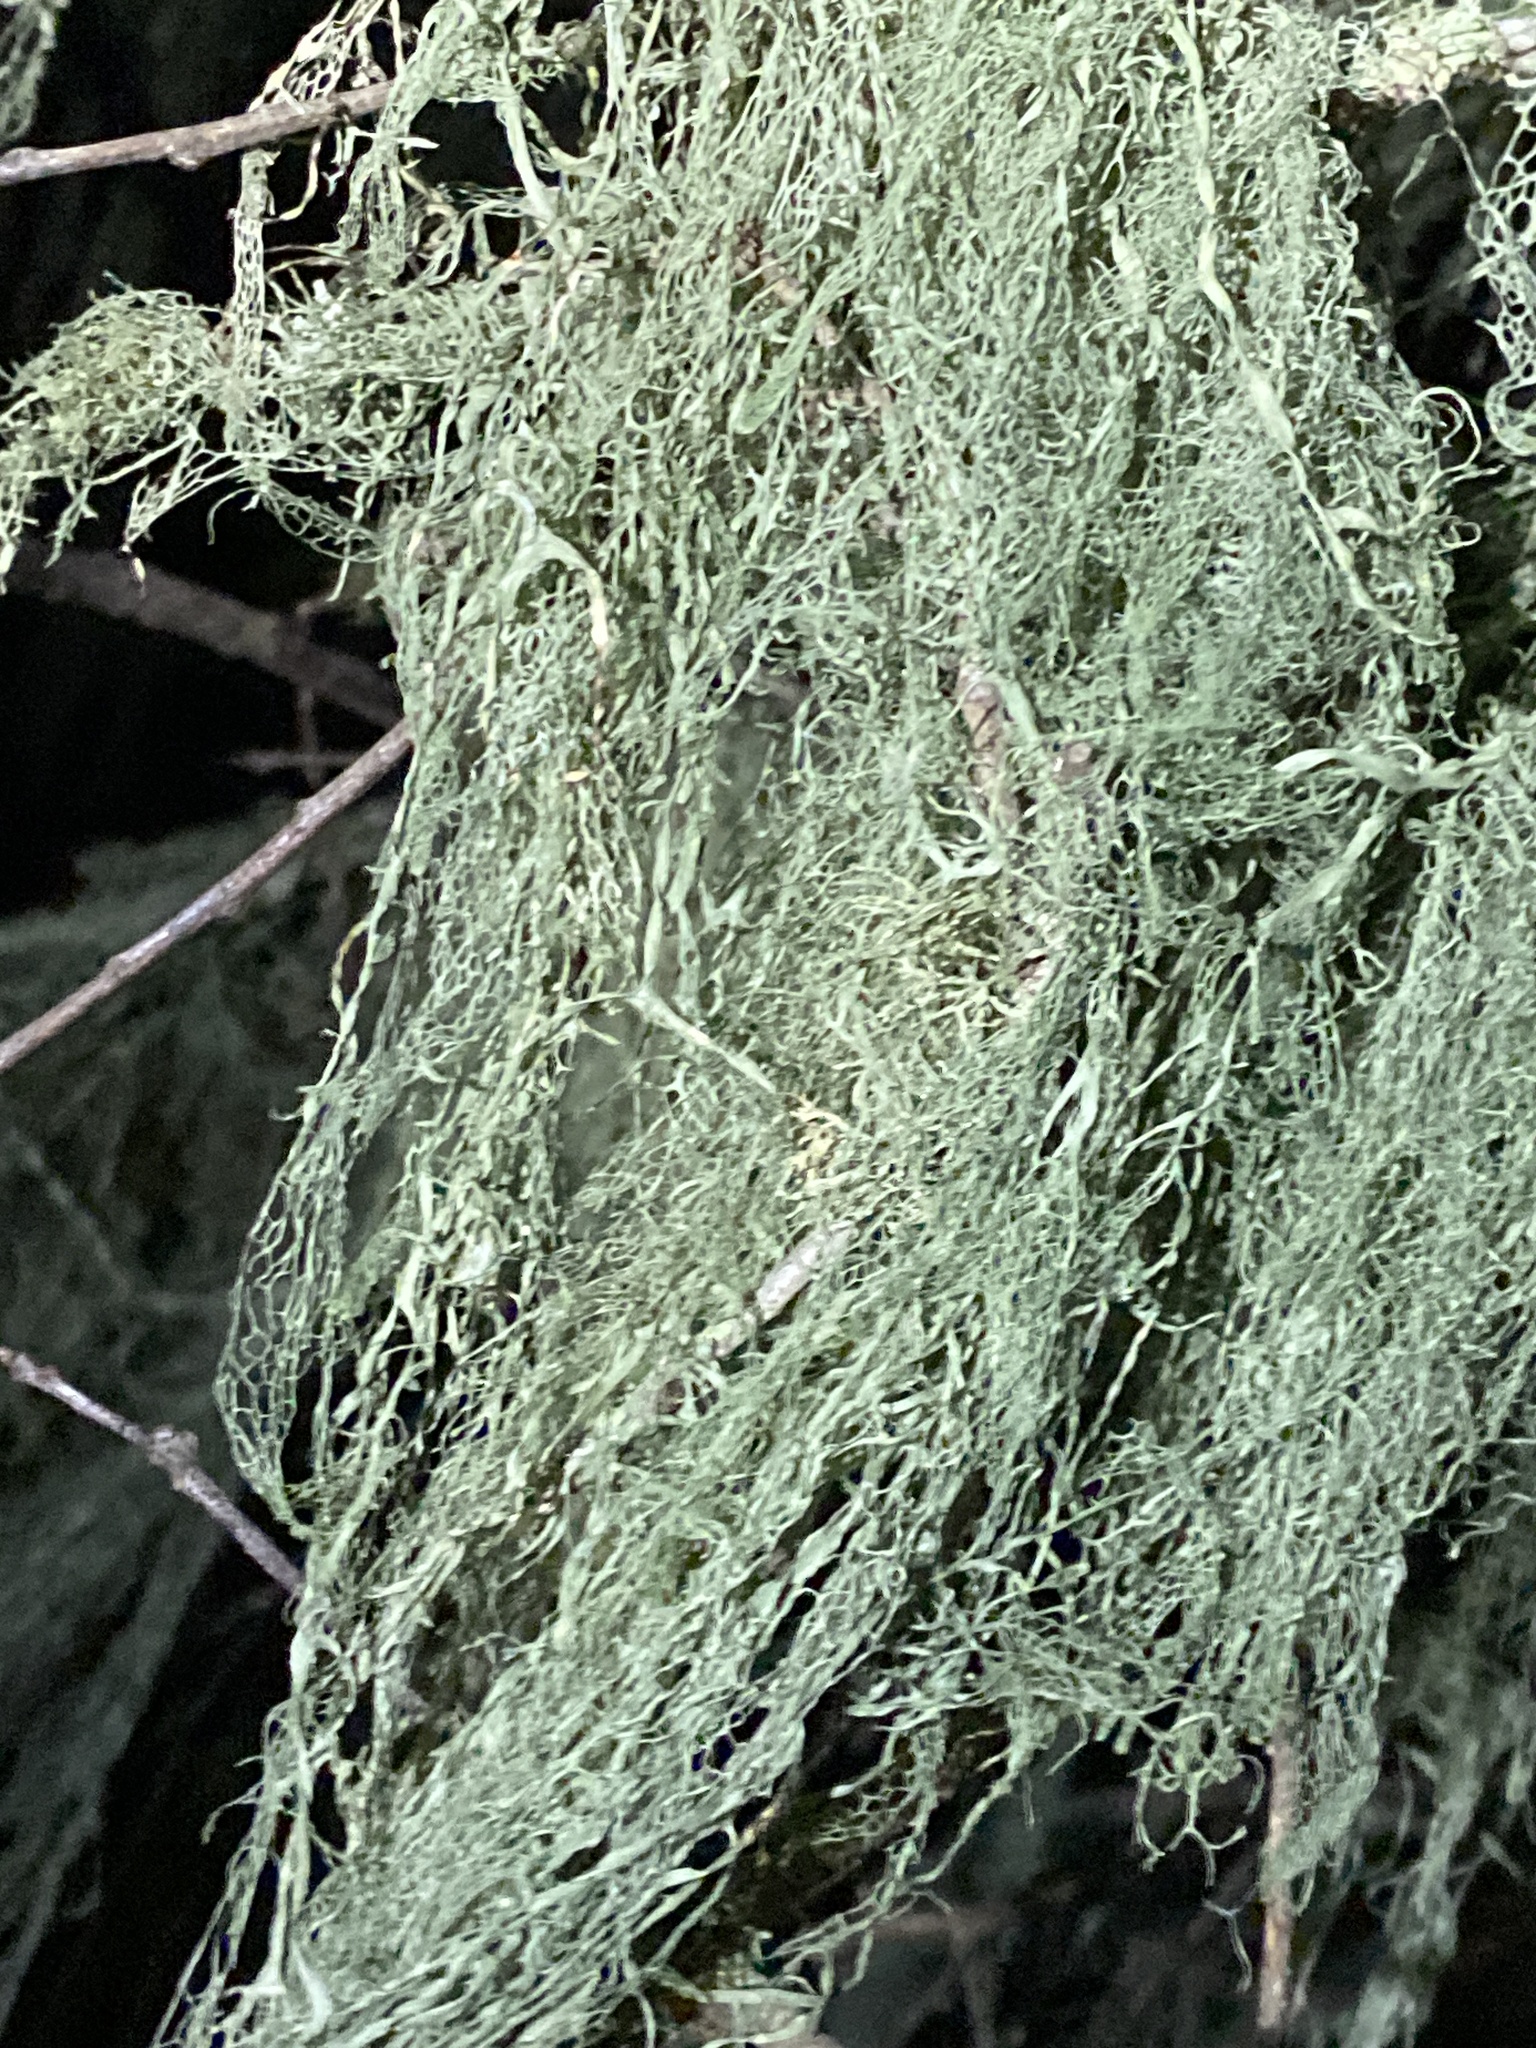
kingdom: Fungi
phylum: Ascomycota
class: Lecanoromycetes
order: Lecanorales
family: Ramalinaceae
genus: Ramalina
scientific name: Ramalina menziesii
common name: Lace lichen
